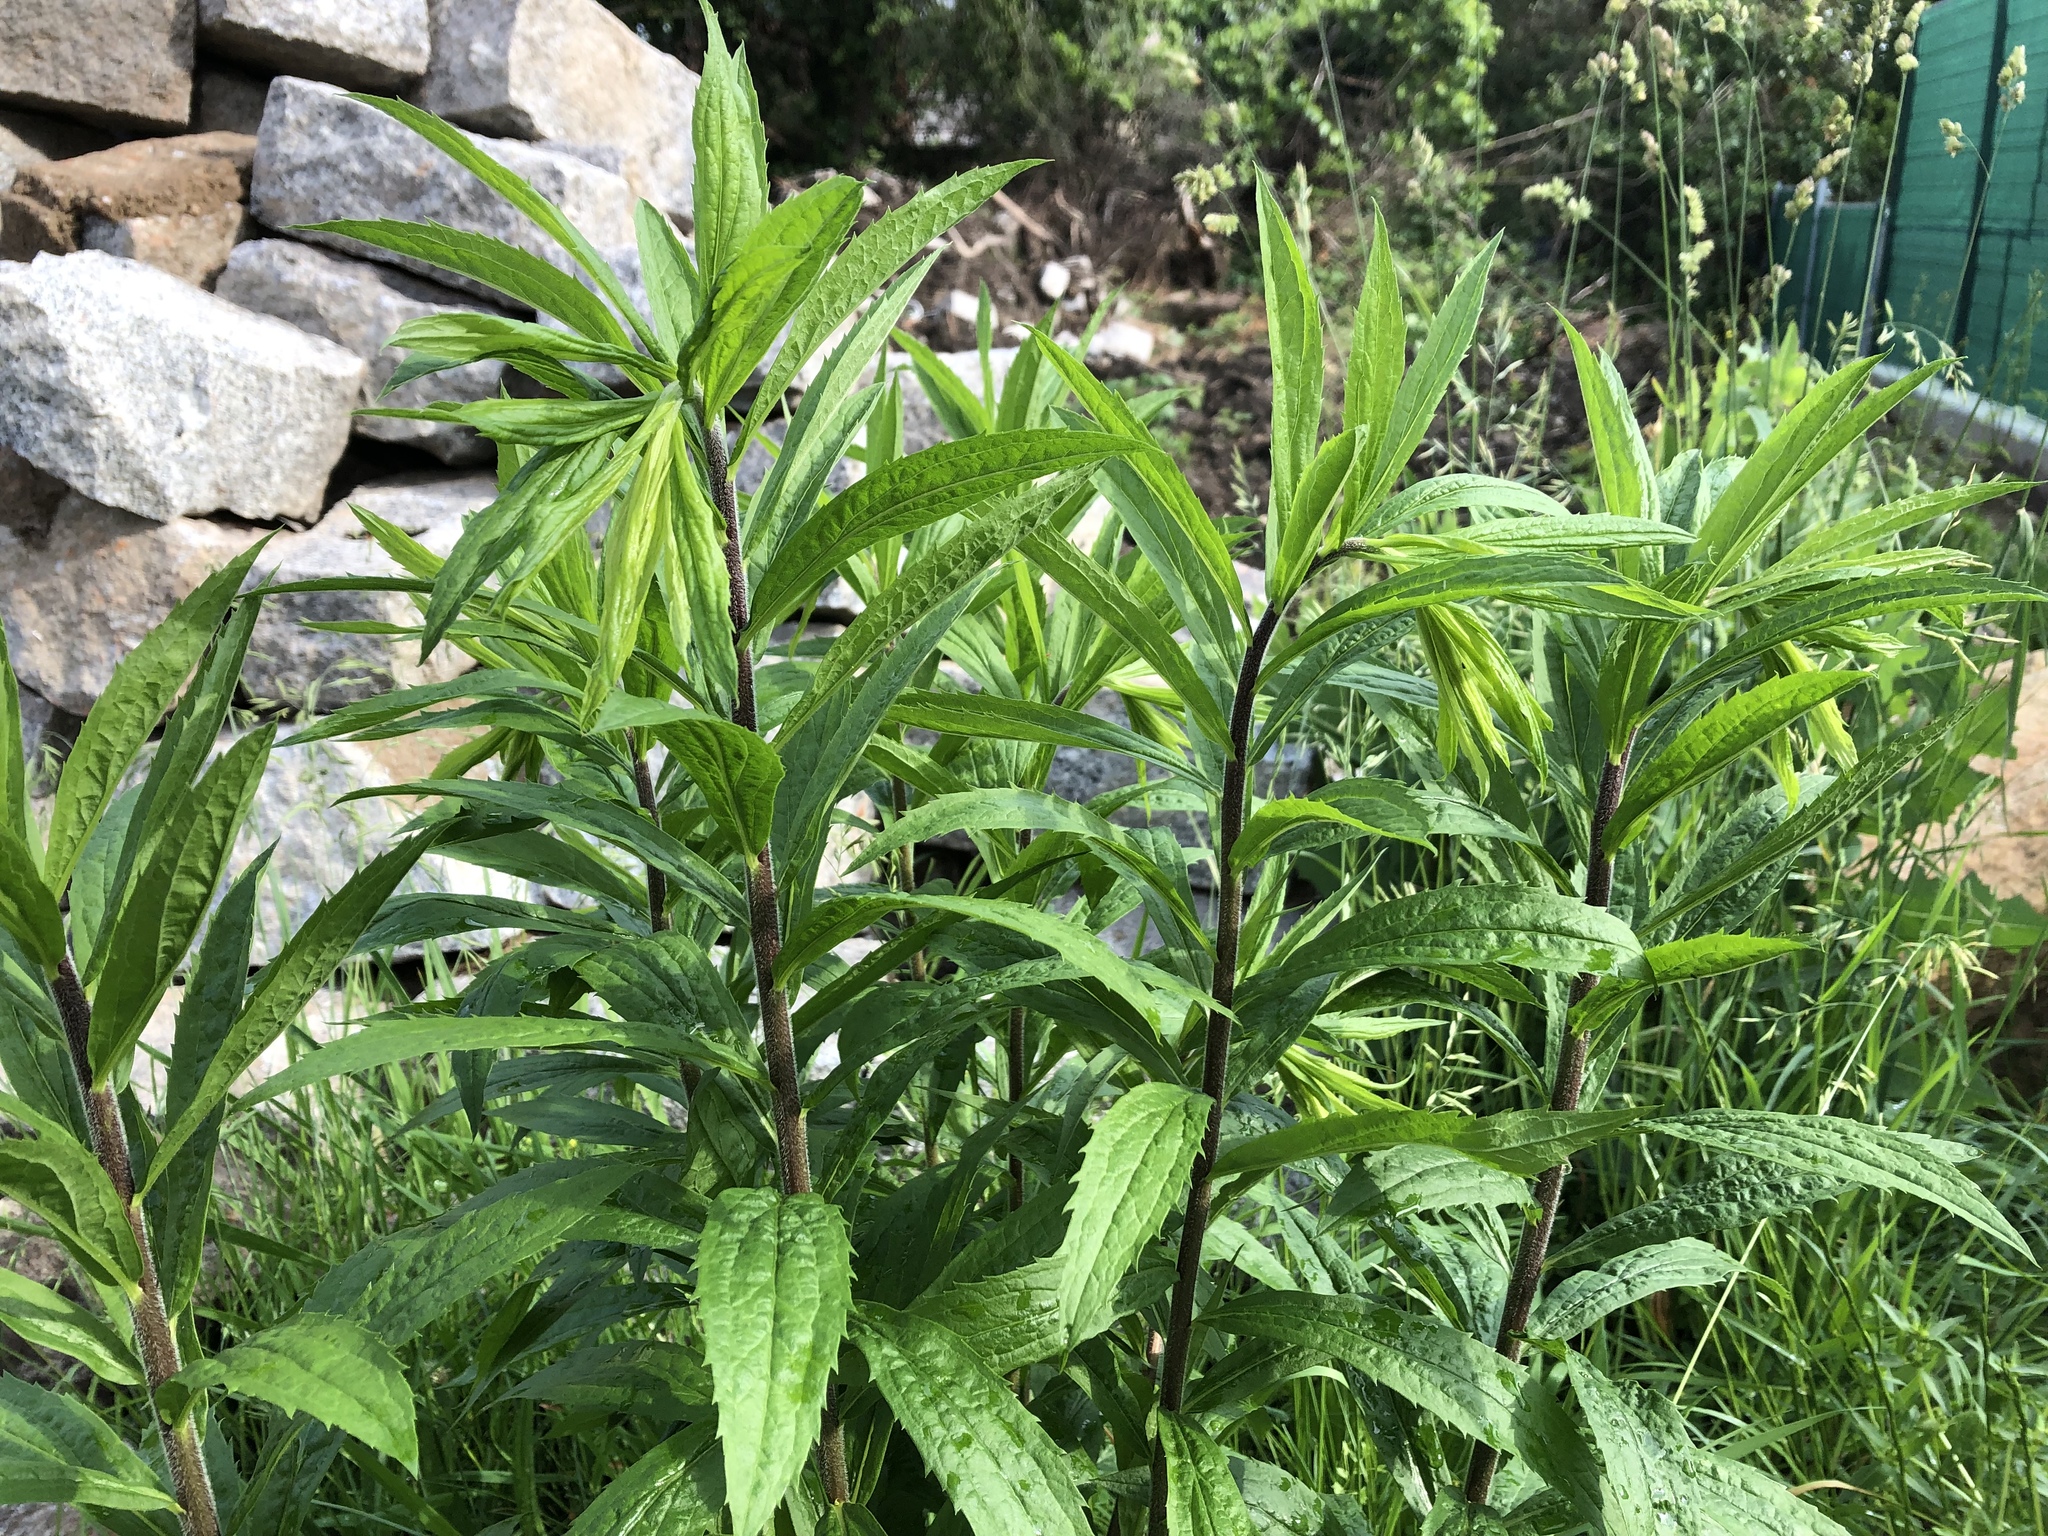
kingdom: Plantae
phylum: Tracheophyta
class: Magnoliopsida
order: Asterales
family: Asteraceae
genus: Solidago
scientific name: Solidago canadensis
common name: Canada goldenrod
